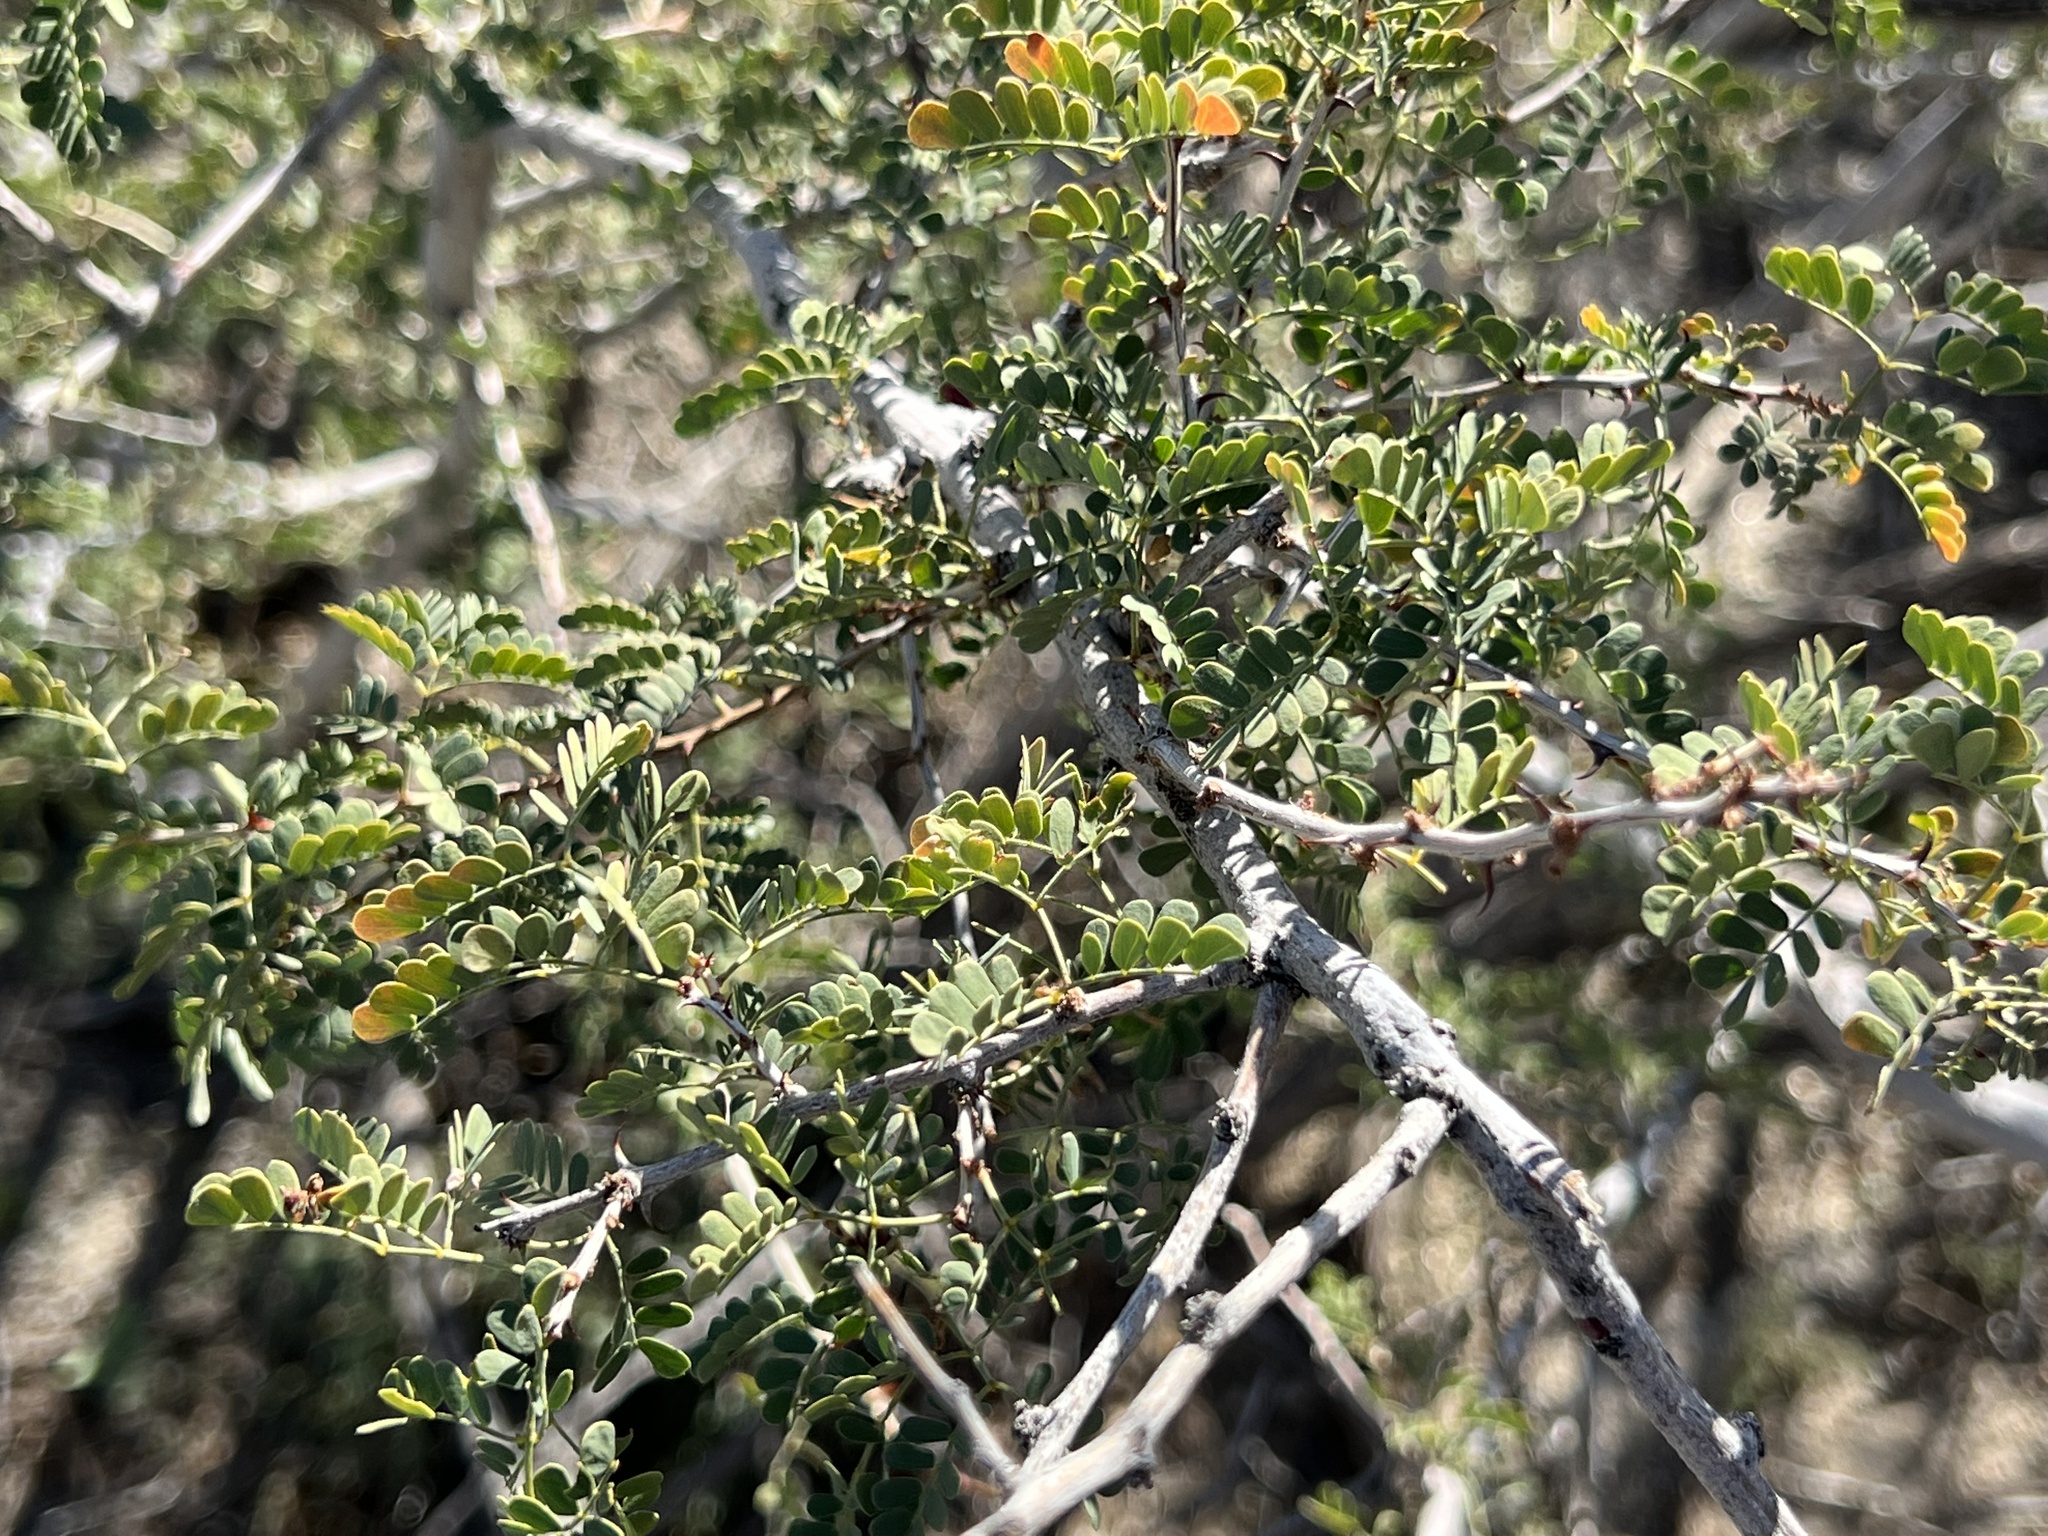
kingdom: Plantae
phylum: Tracheophyta
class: Magnoliopsida
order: Fabales
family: Fabaceae
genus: Senegalia
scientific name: Senegalia greggii
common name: Texas-mimosa
